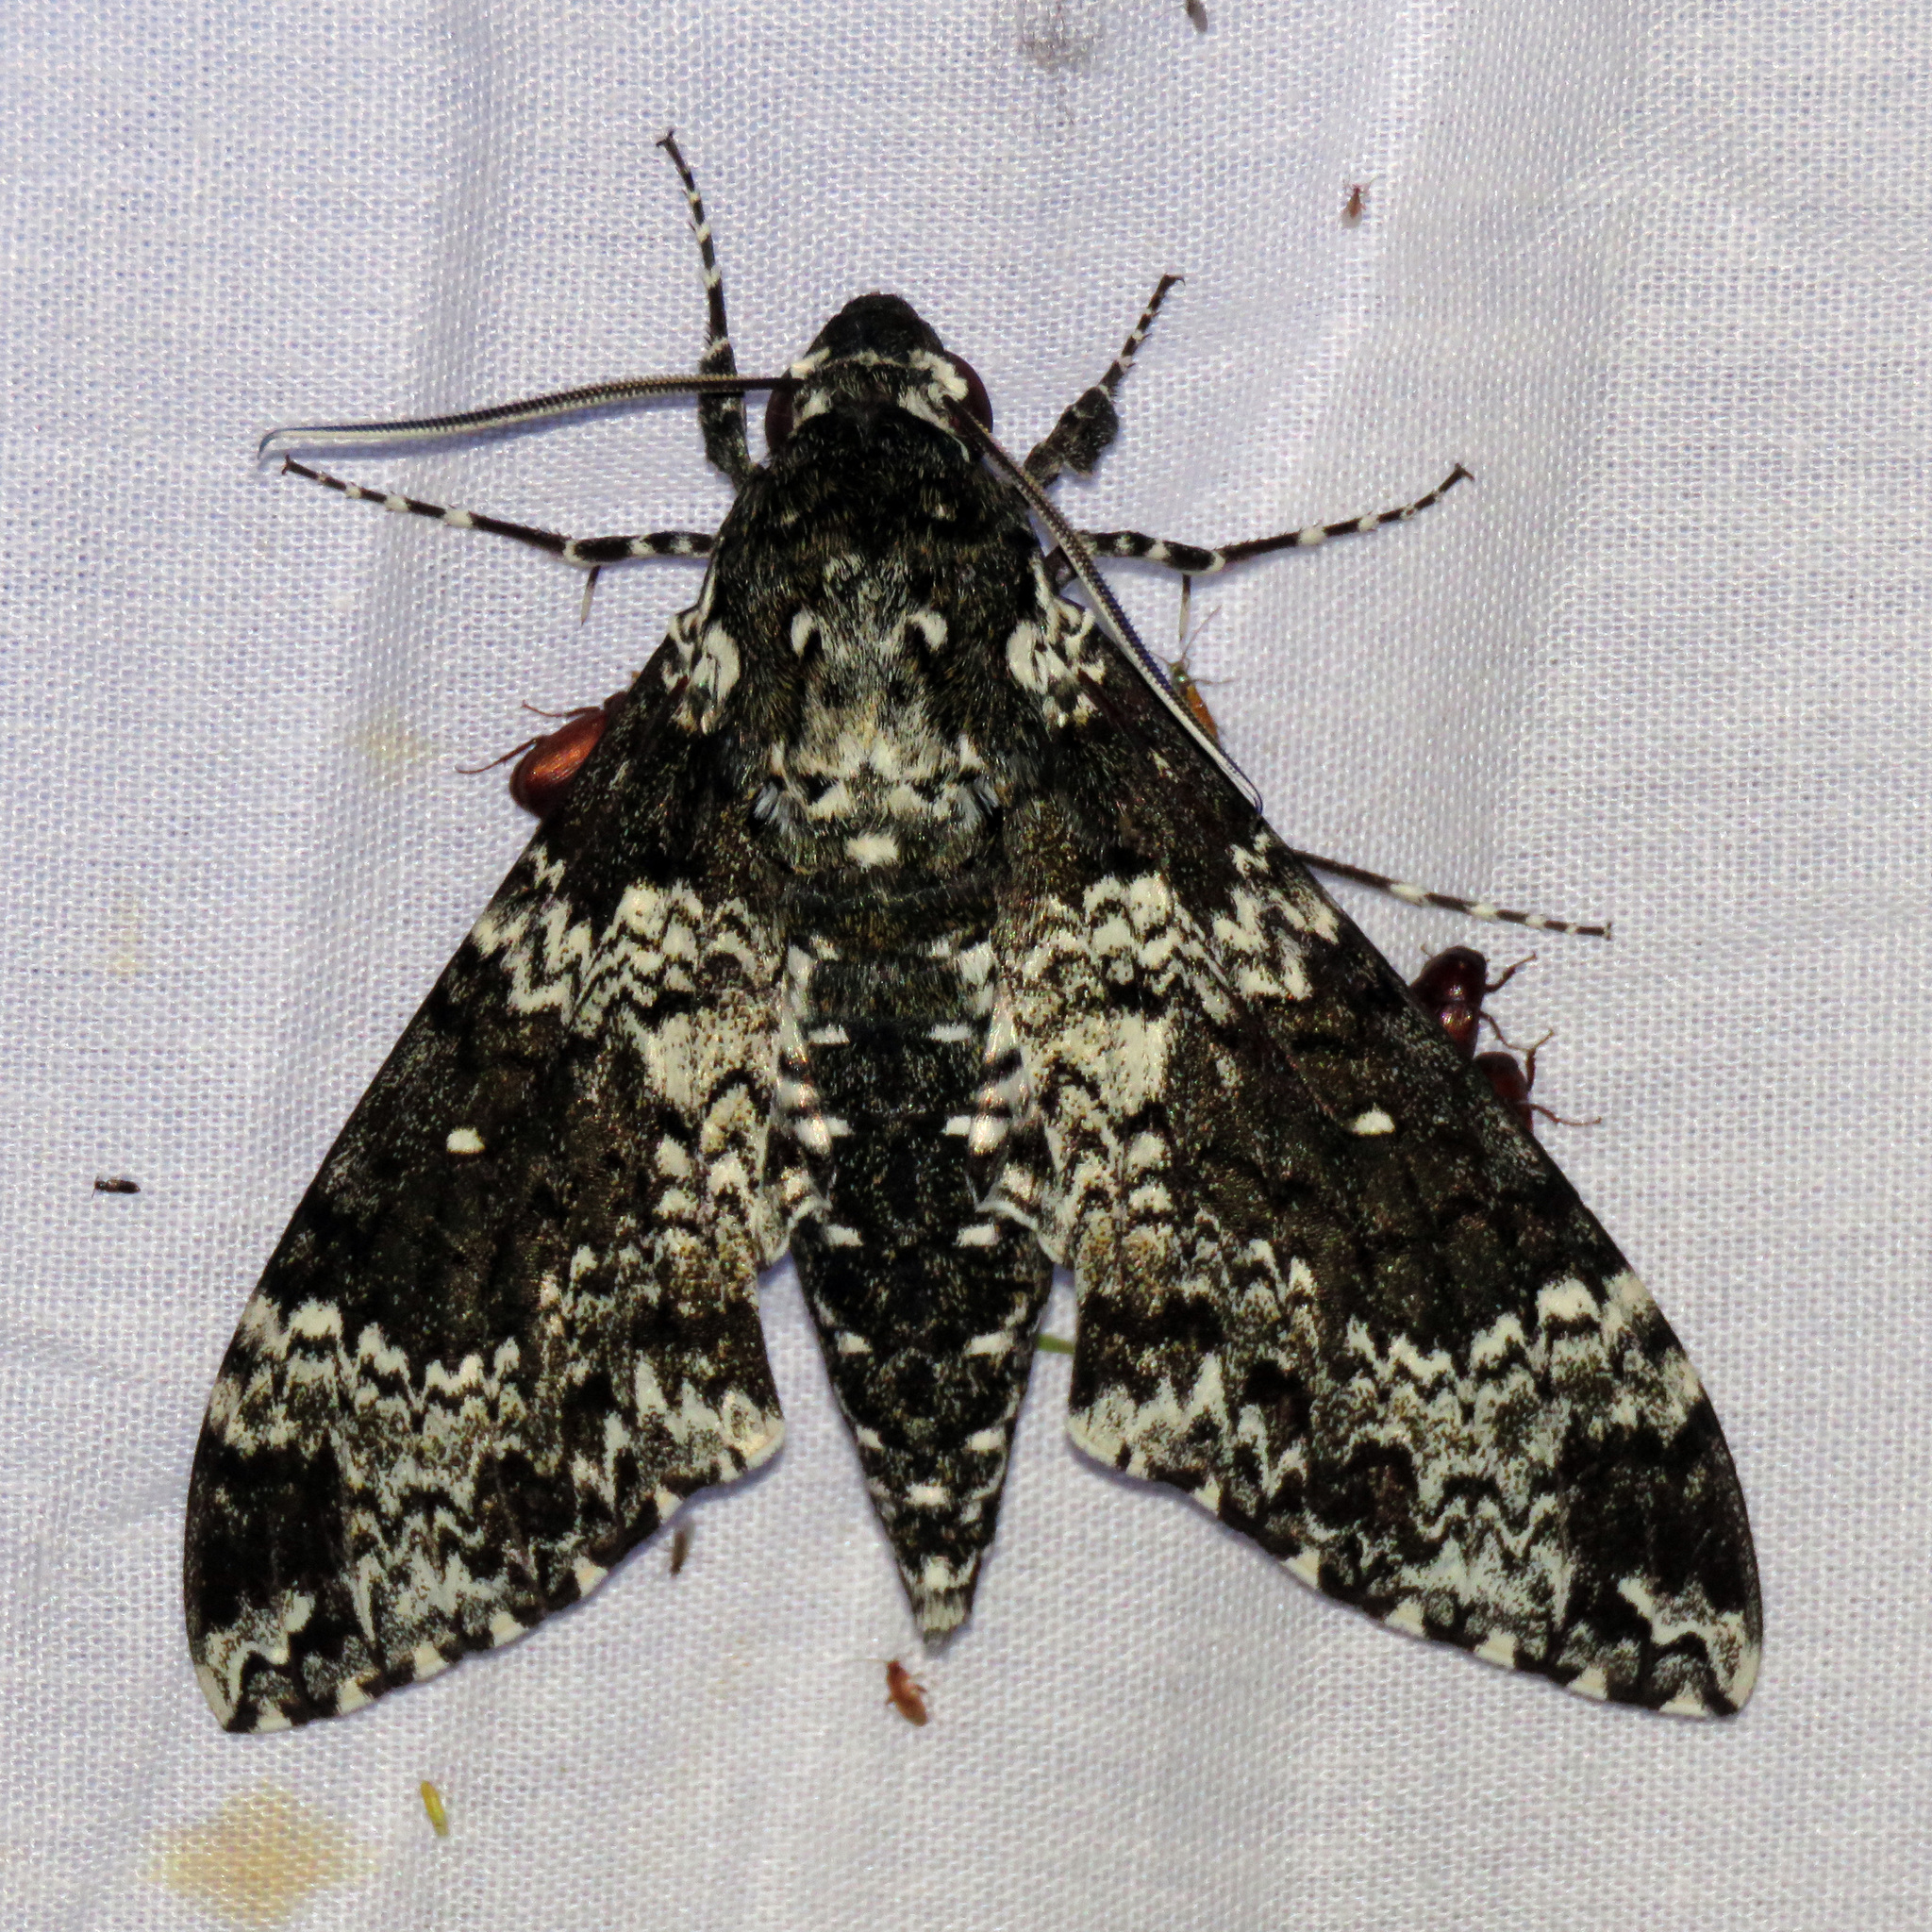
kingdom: Animalia
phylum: Arthropoda
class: Insecta
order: Lepidoptera
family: Sphingidae
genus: Manduca
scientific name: Manduca rustica
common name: Rustic sphinx
